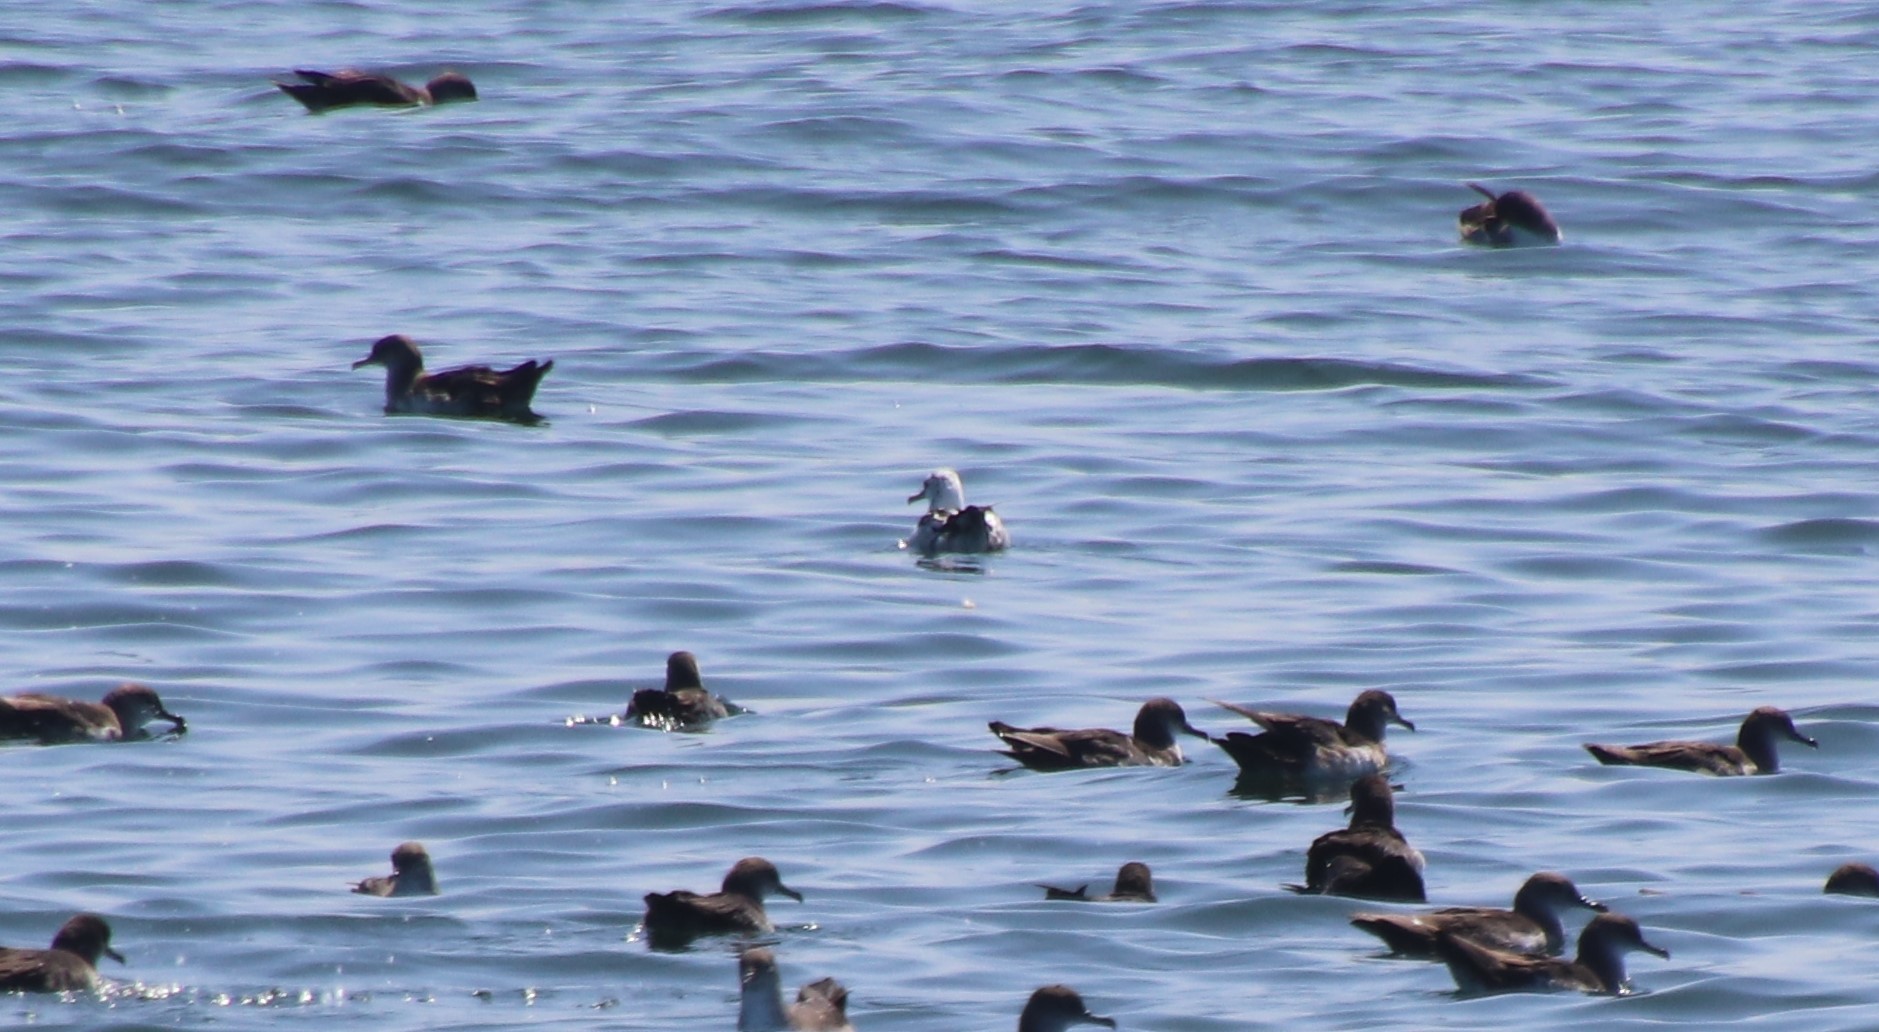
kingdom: Animalia
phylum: Chordata
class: Aves
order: Procellariiformes
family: Procellariidae
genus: Puffinus
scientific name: Puffinus opisthomelas
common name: Black-vented shearwater
